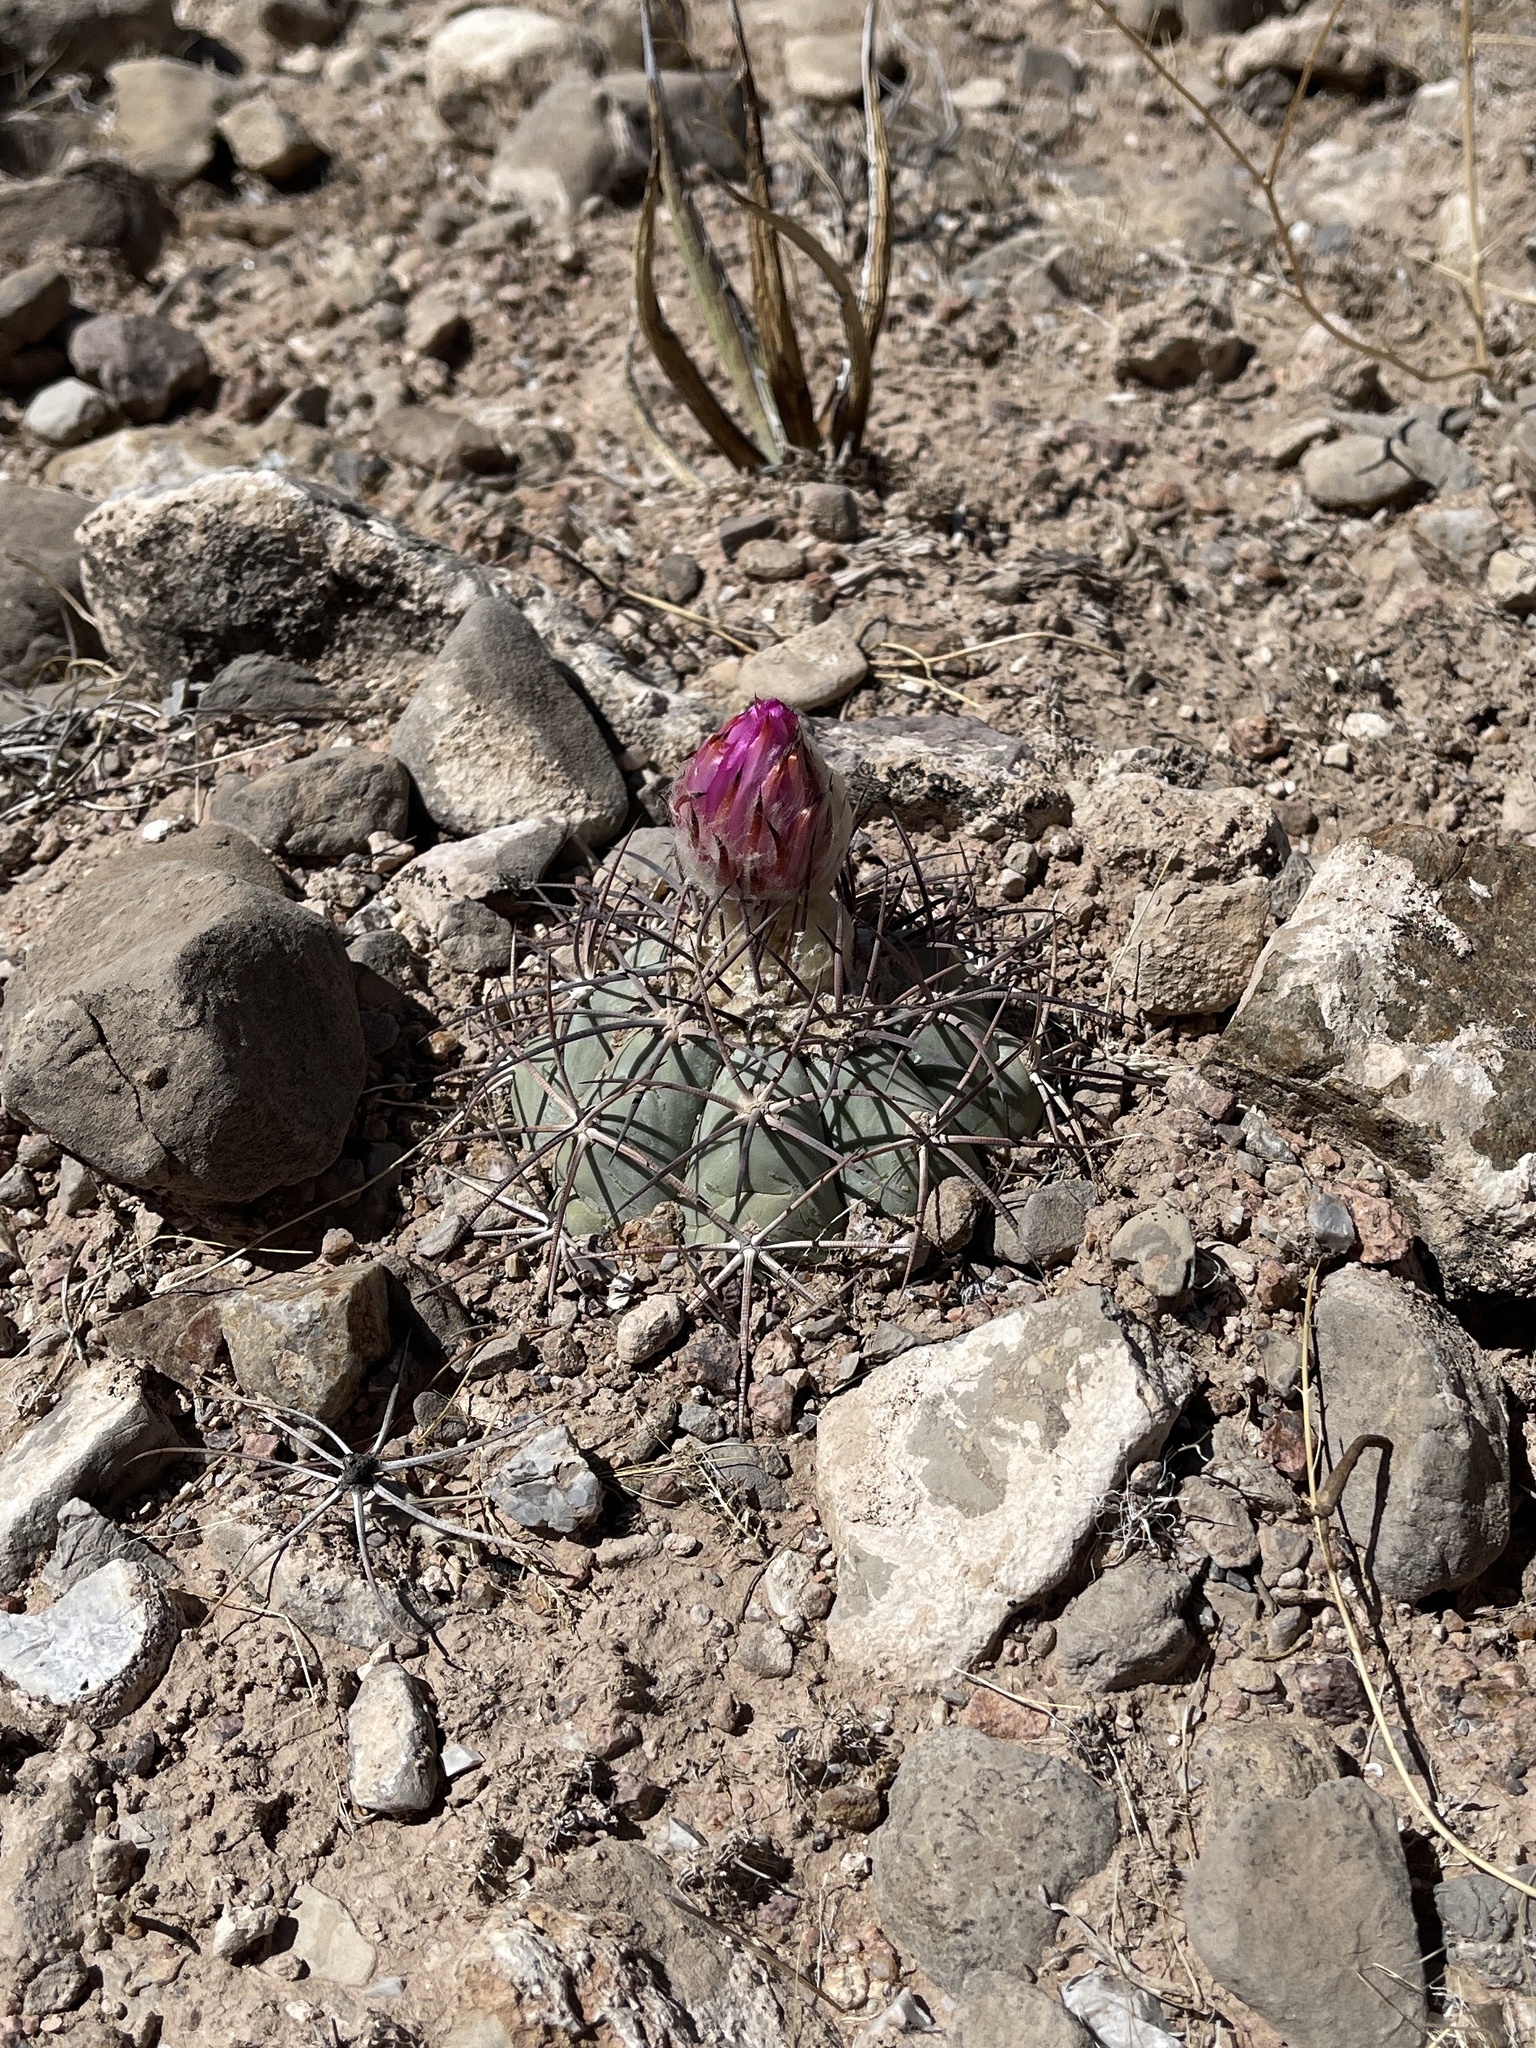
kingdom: Plantae
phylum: Tracheophyta
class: Magnoliopsida
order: Caryophyllales
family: Cactaceae
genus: Echinocactus
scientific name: Echinocactus horizonthalonius
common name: Devilshead
